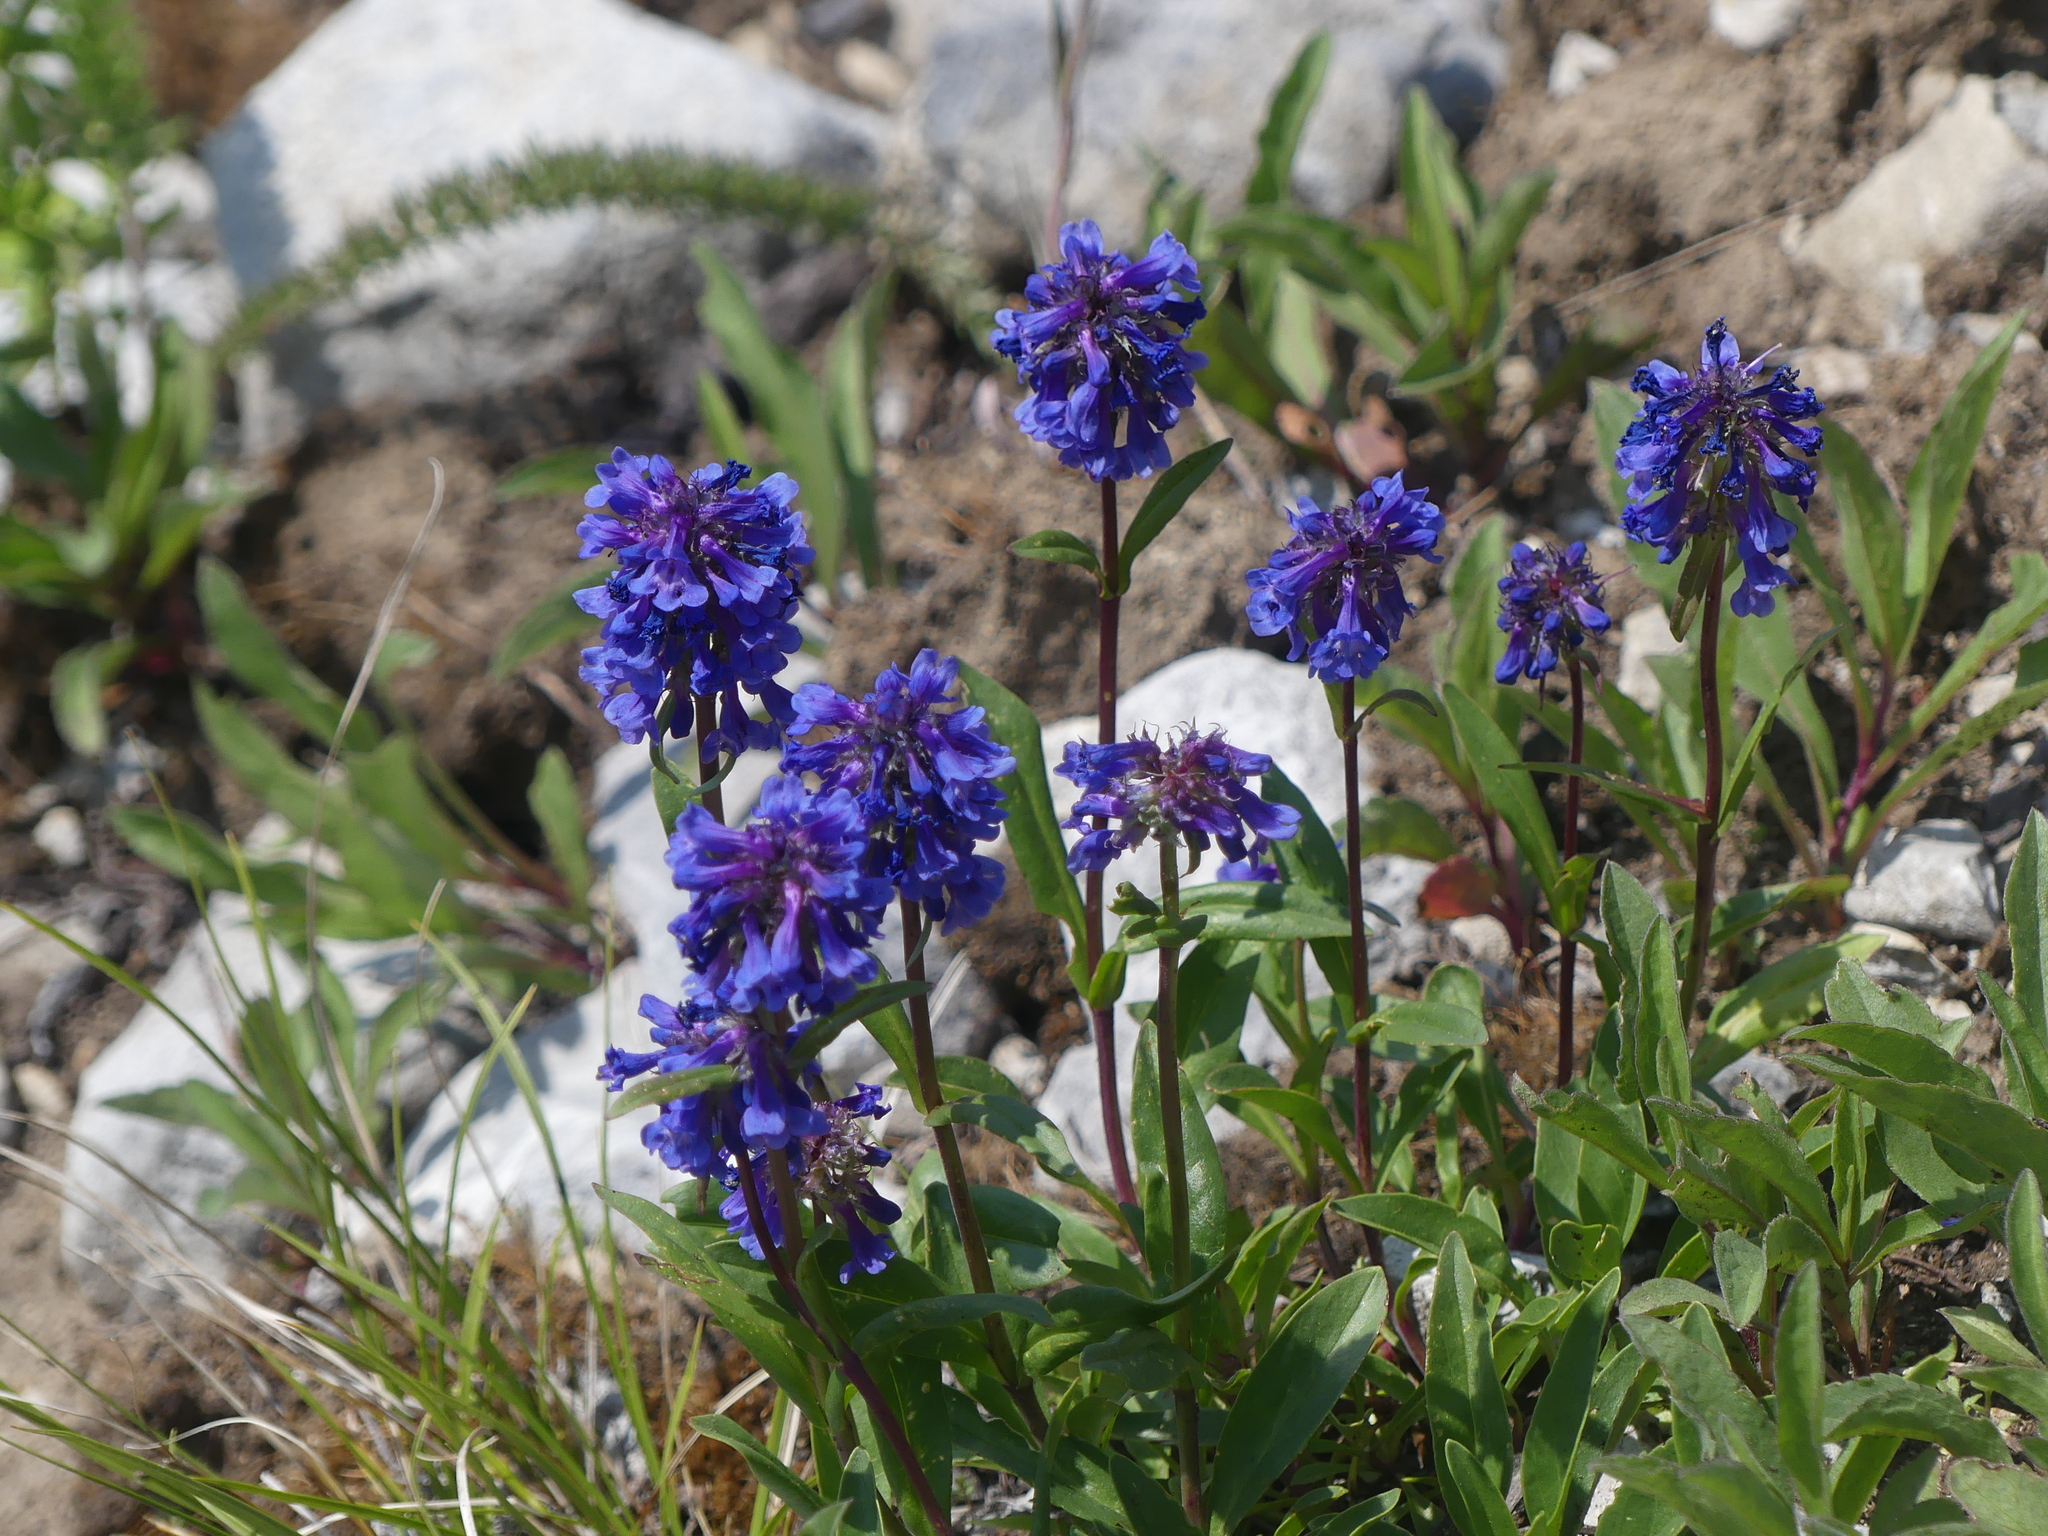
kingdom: Plantae
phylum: Tracheophyta
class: Magnoliopsida
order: Lamiales
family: Plantaginaceae
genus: Penstemon
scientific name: Penstemon procerus
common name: Small-flower penstemon
